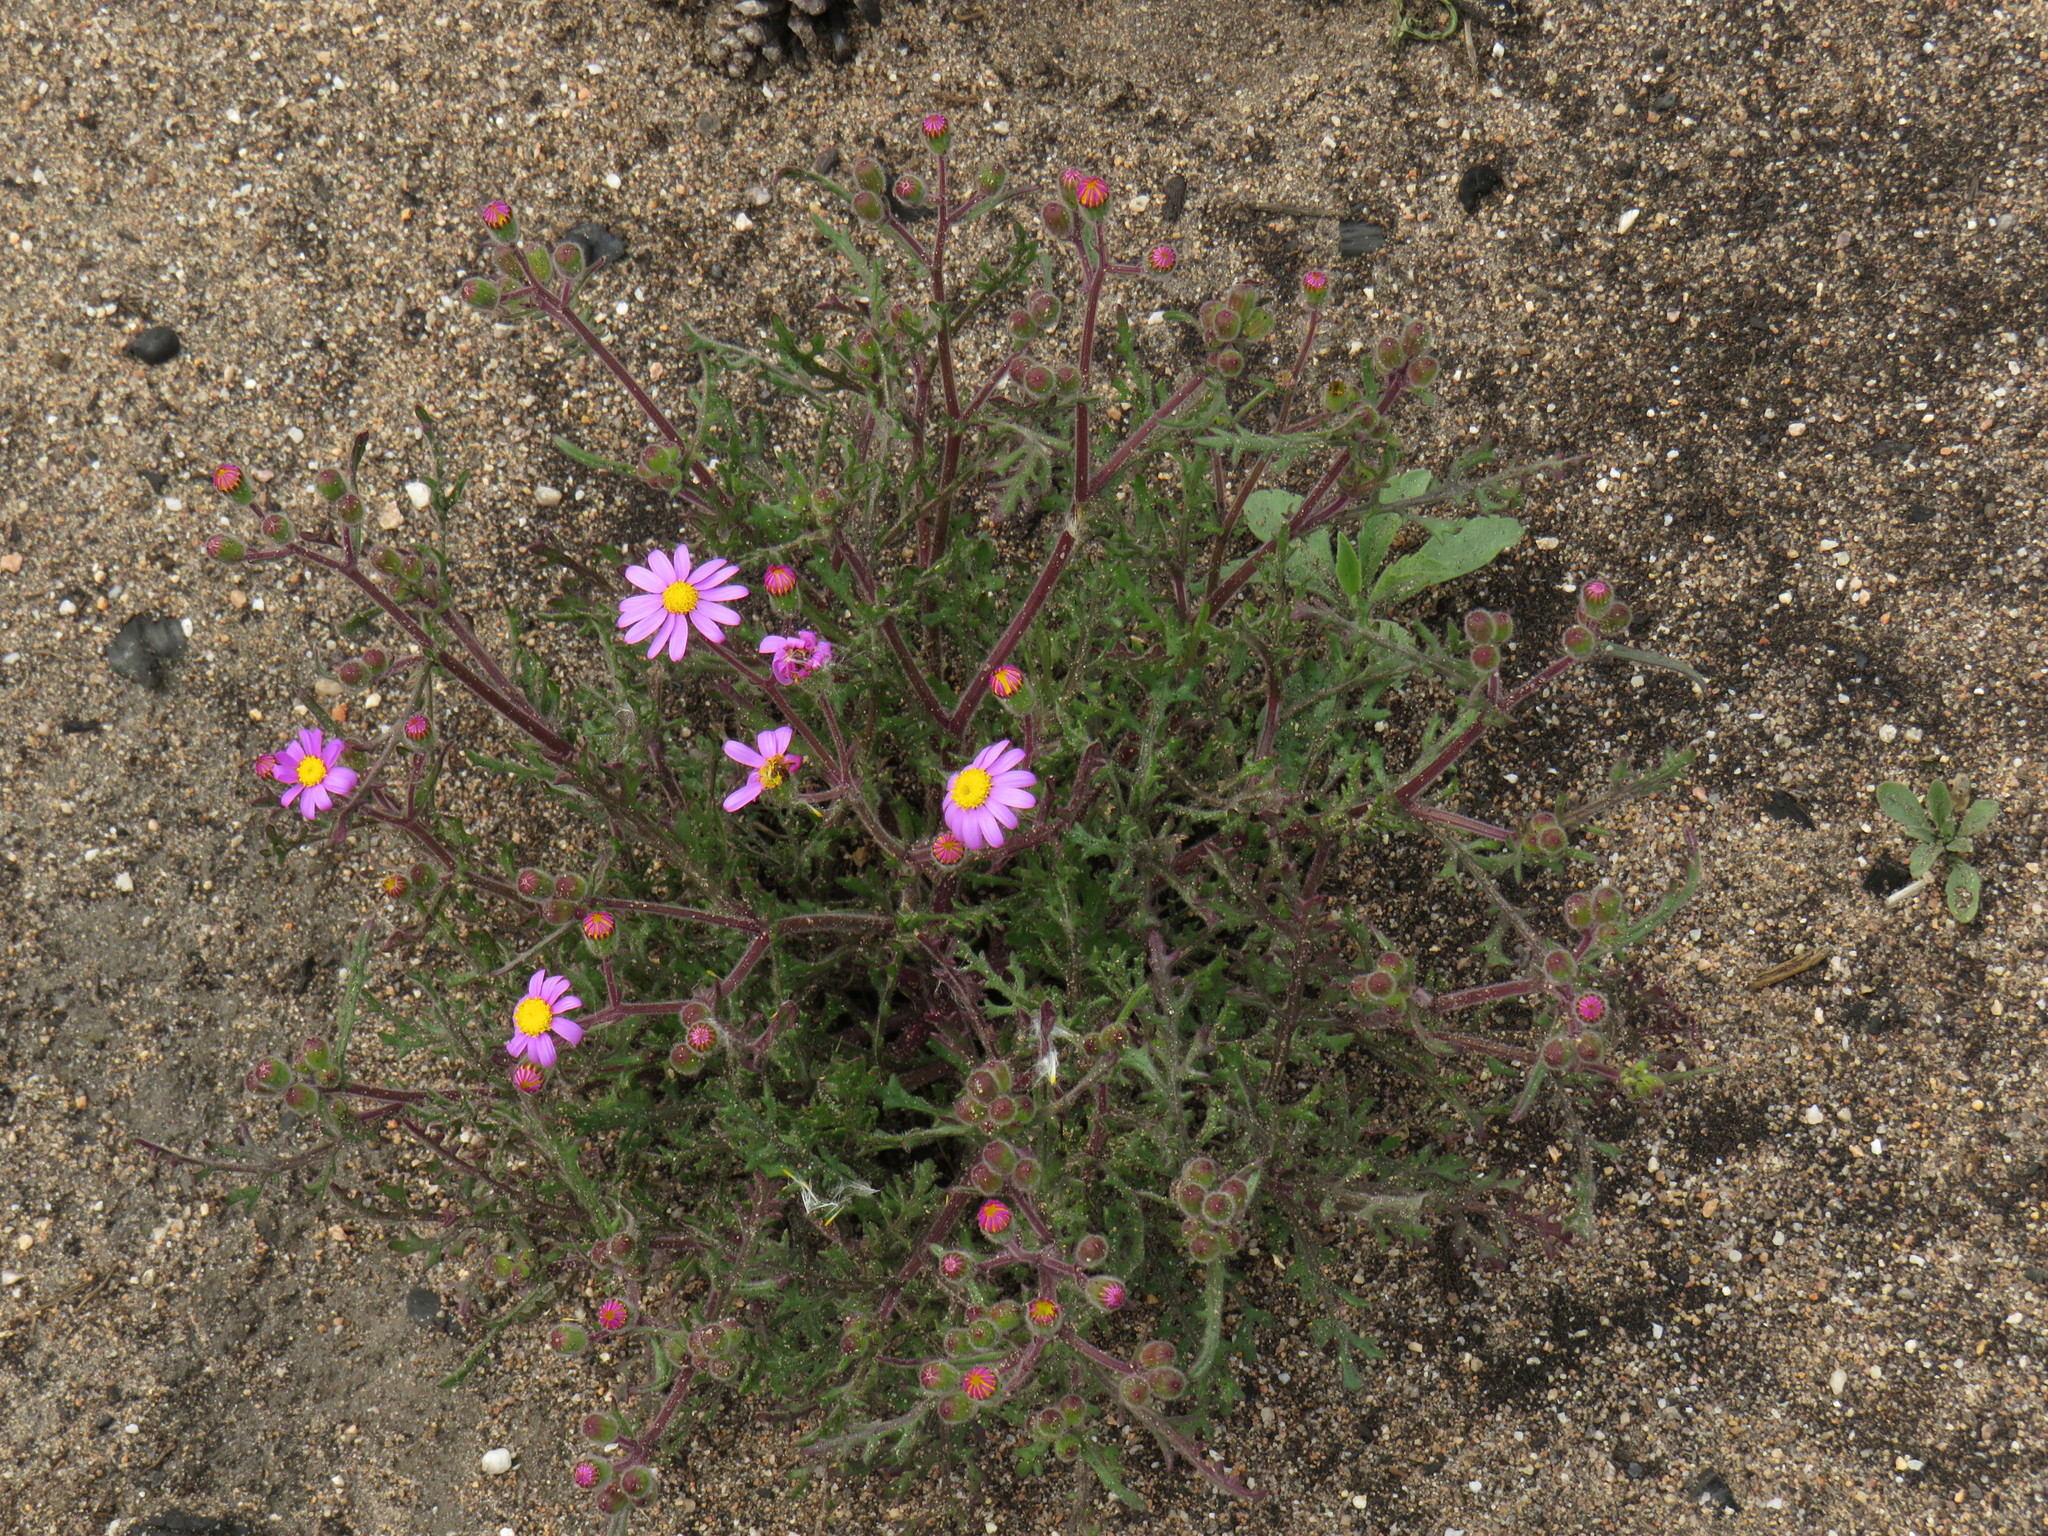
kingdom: Plantae
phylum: Tracheophyta
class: Magnoliopsida
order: Asterales
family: Asteraceae
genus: Senecio
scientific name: Senecio arenarius
